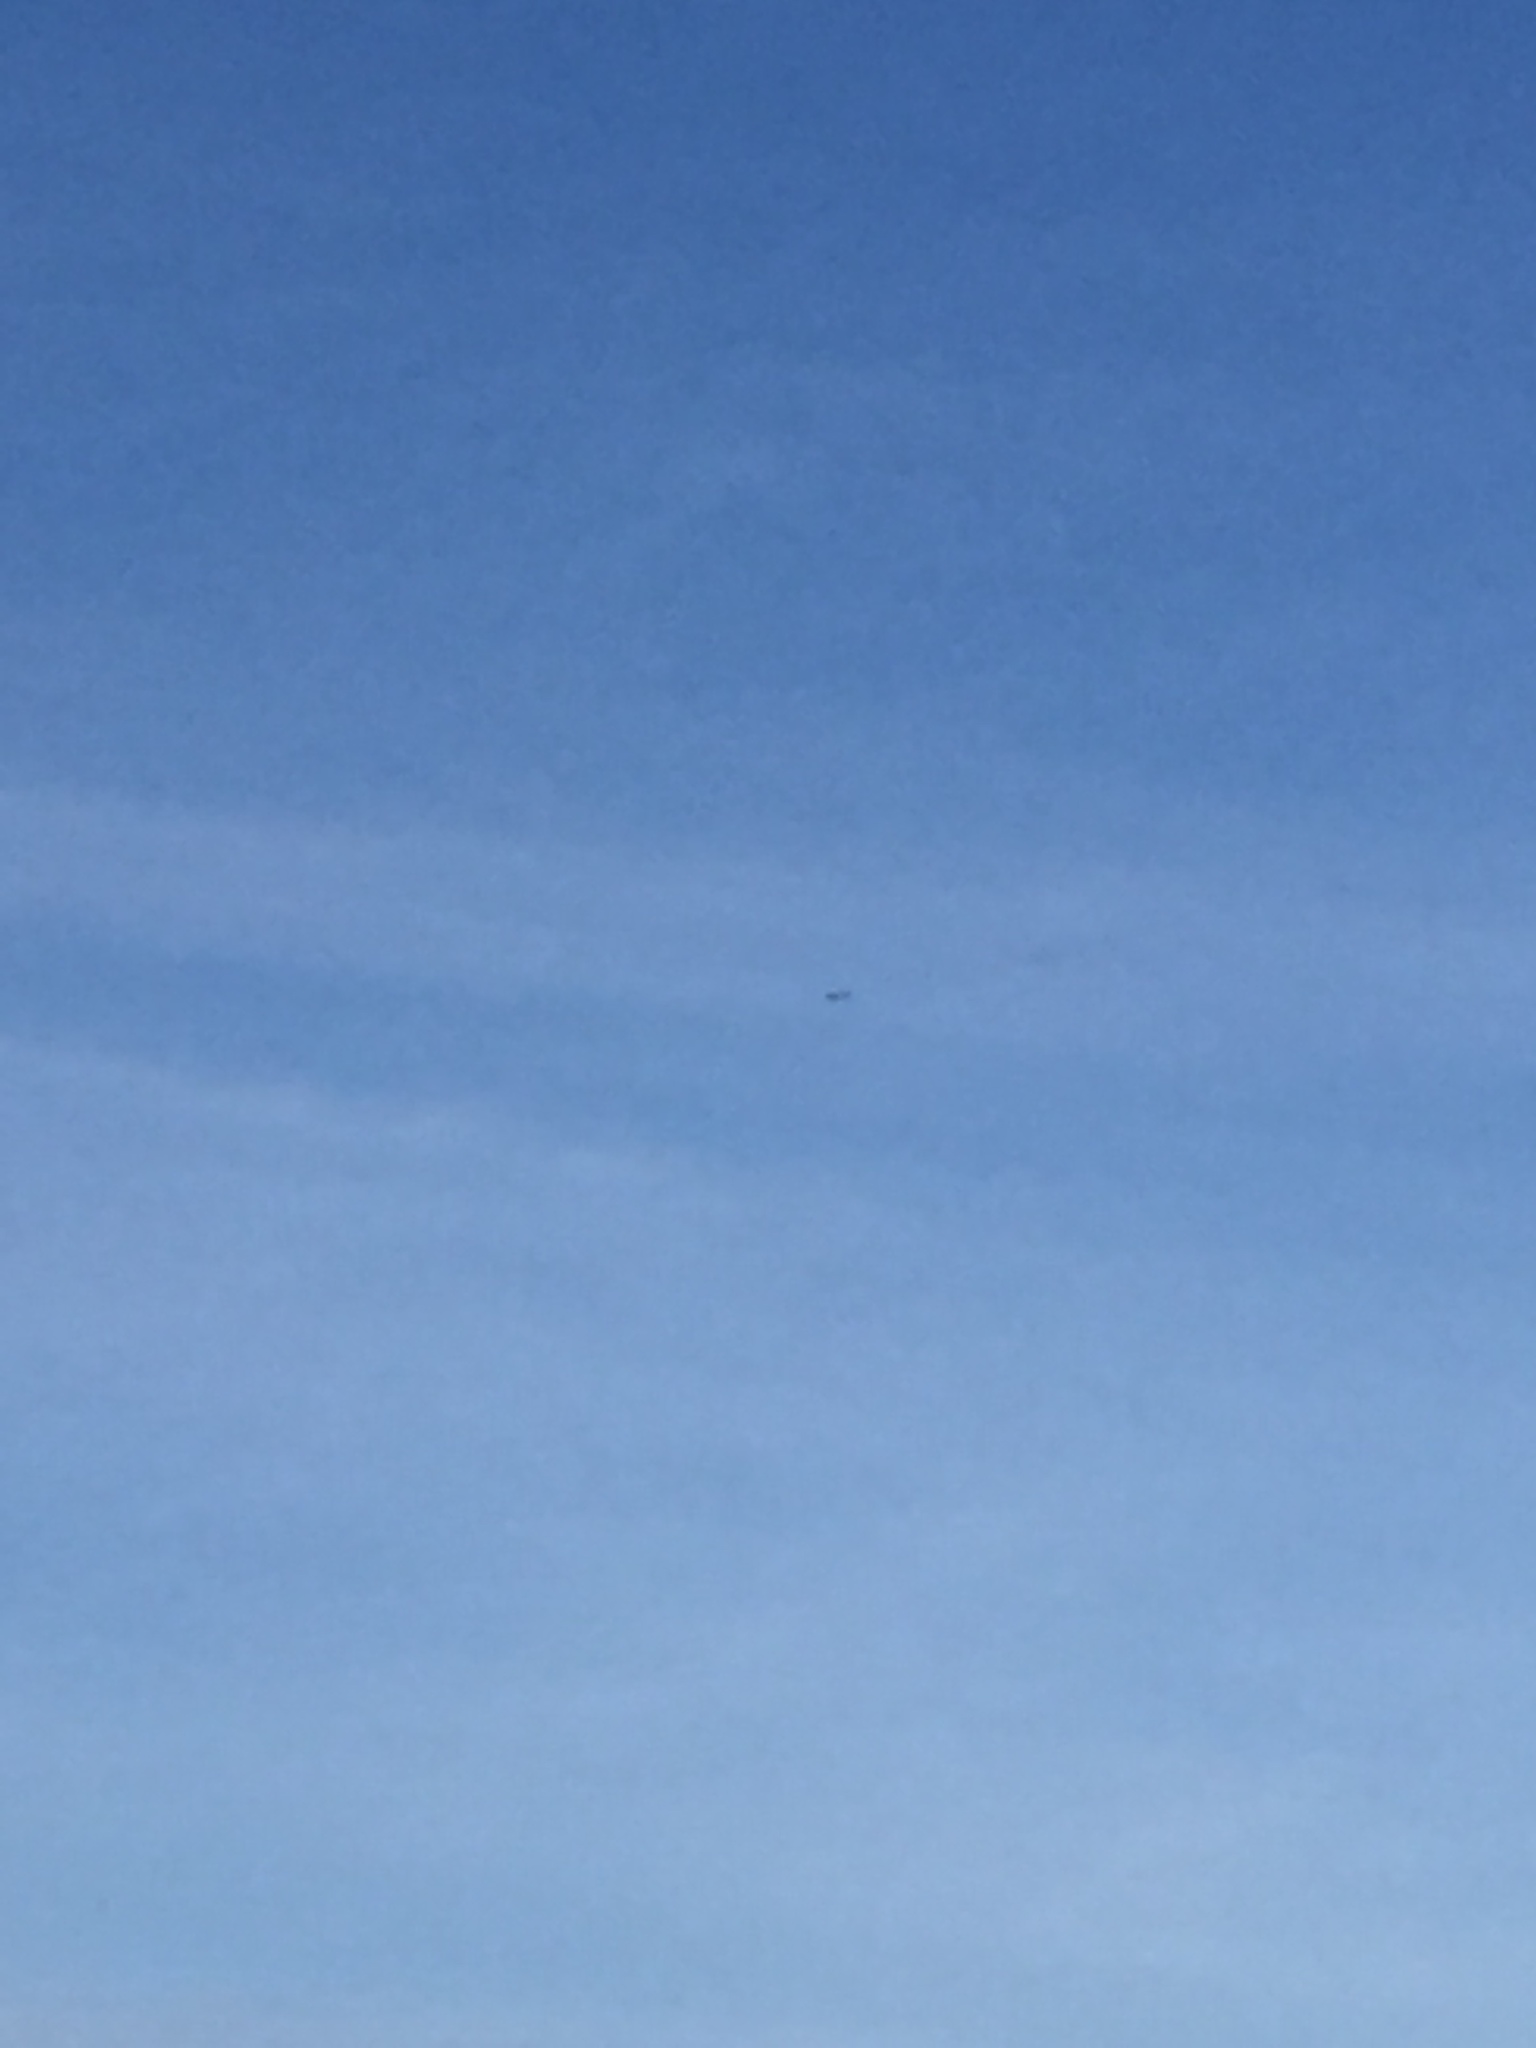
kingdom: Animalia
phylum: Chordata
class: Aves
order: Accipitriformes
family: Pandionidae
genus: Pandion
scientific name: Pandion haliaetus
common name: Osprey
